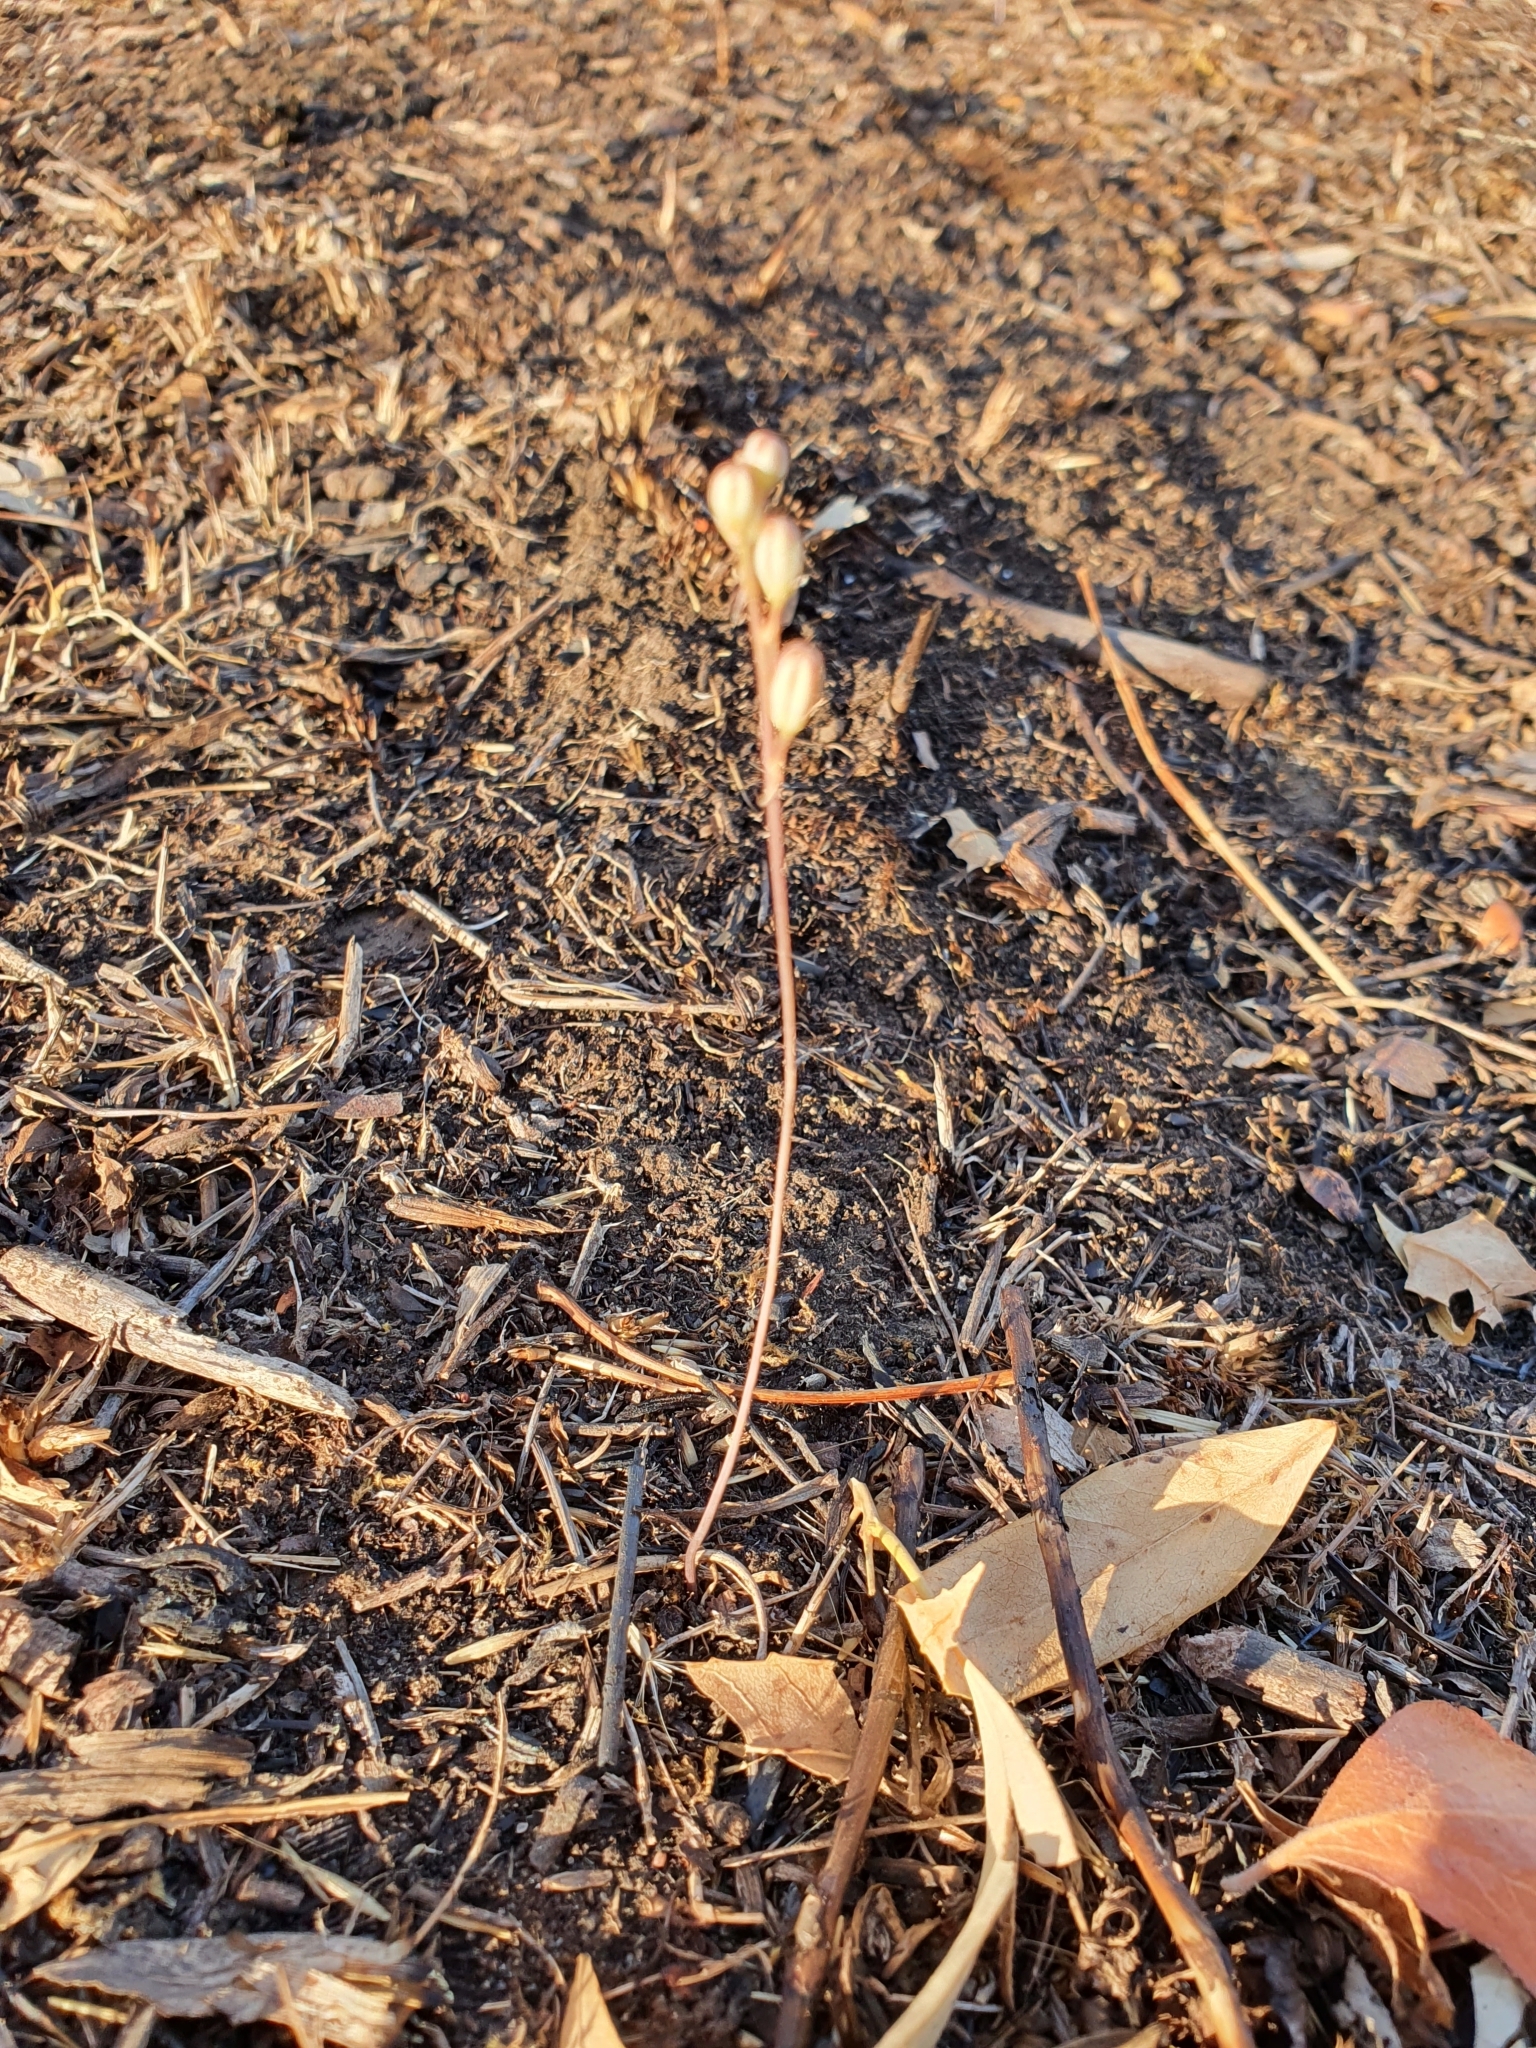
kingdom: Plantae
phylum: Tracheophyta
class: Liliopsida
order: Asparagales
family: Asparagaceae
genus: Drimia
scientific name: Drimia fugax
